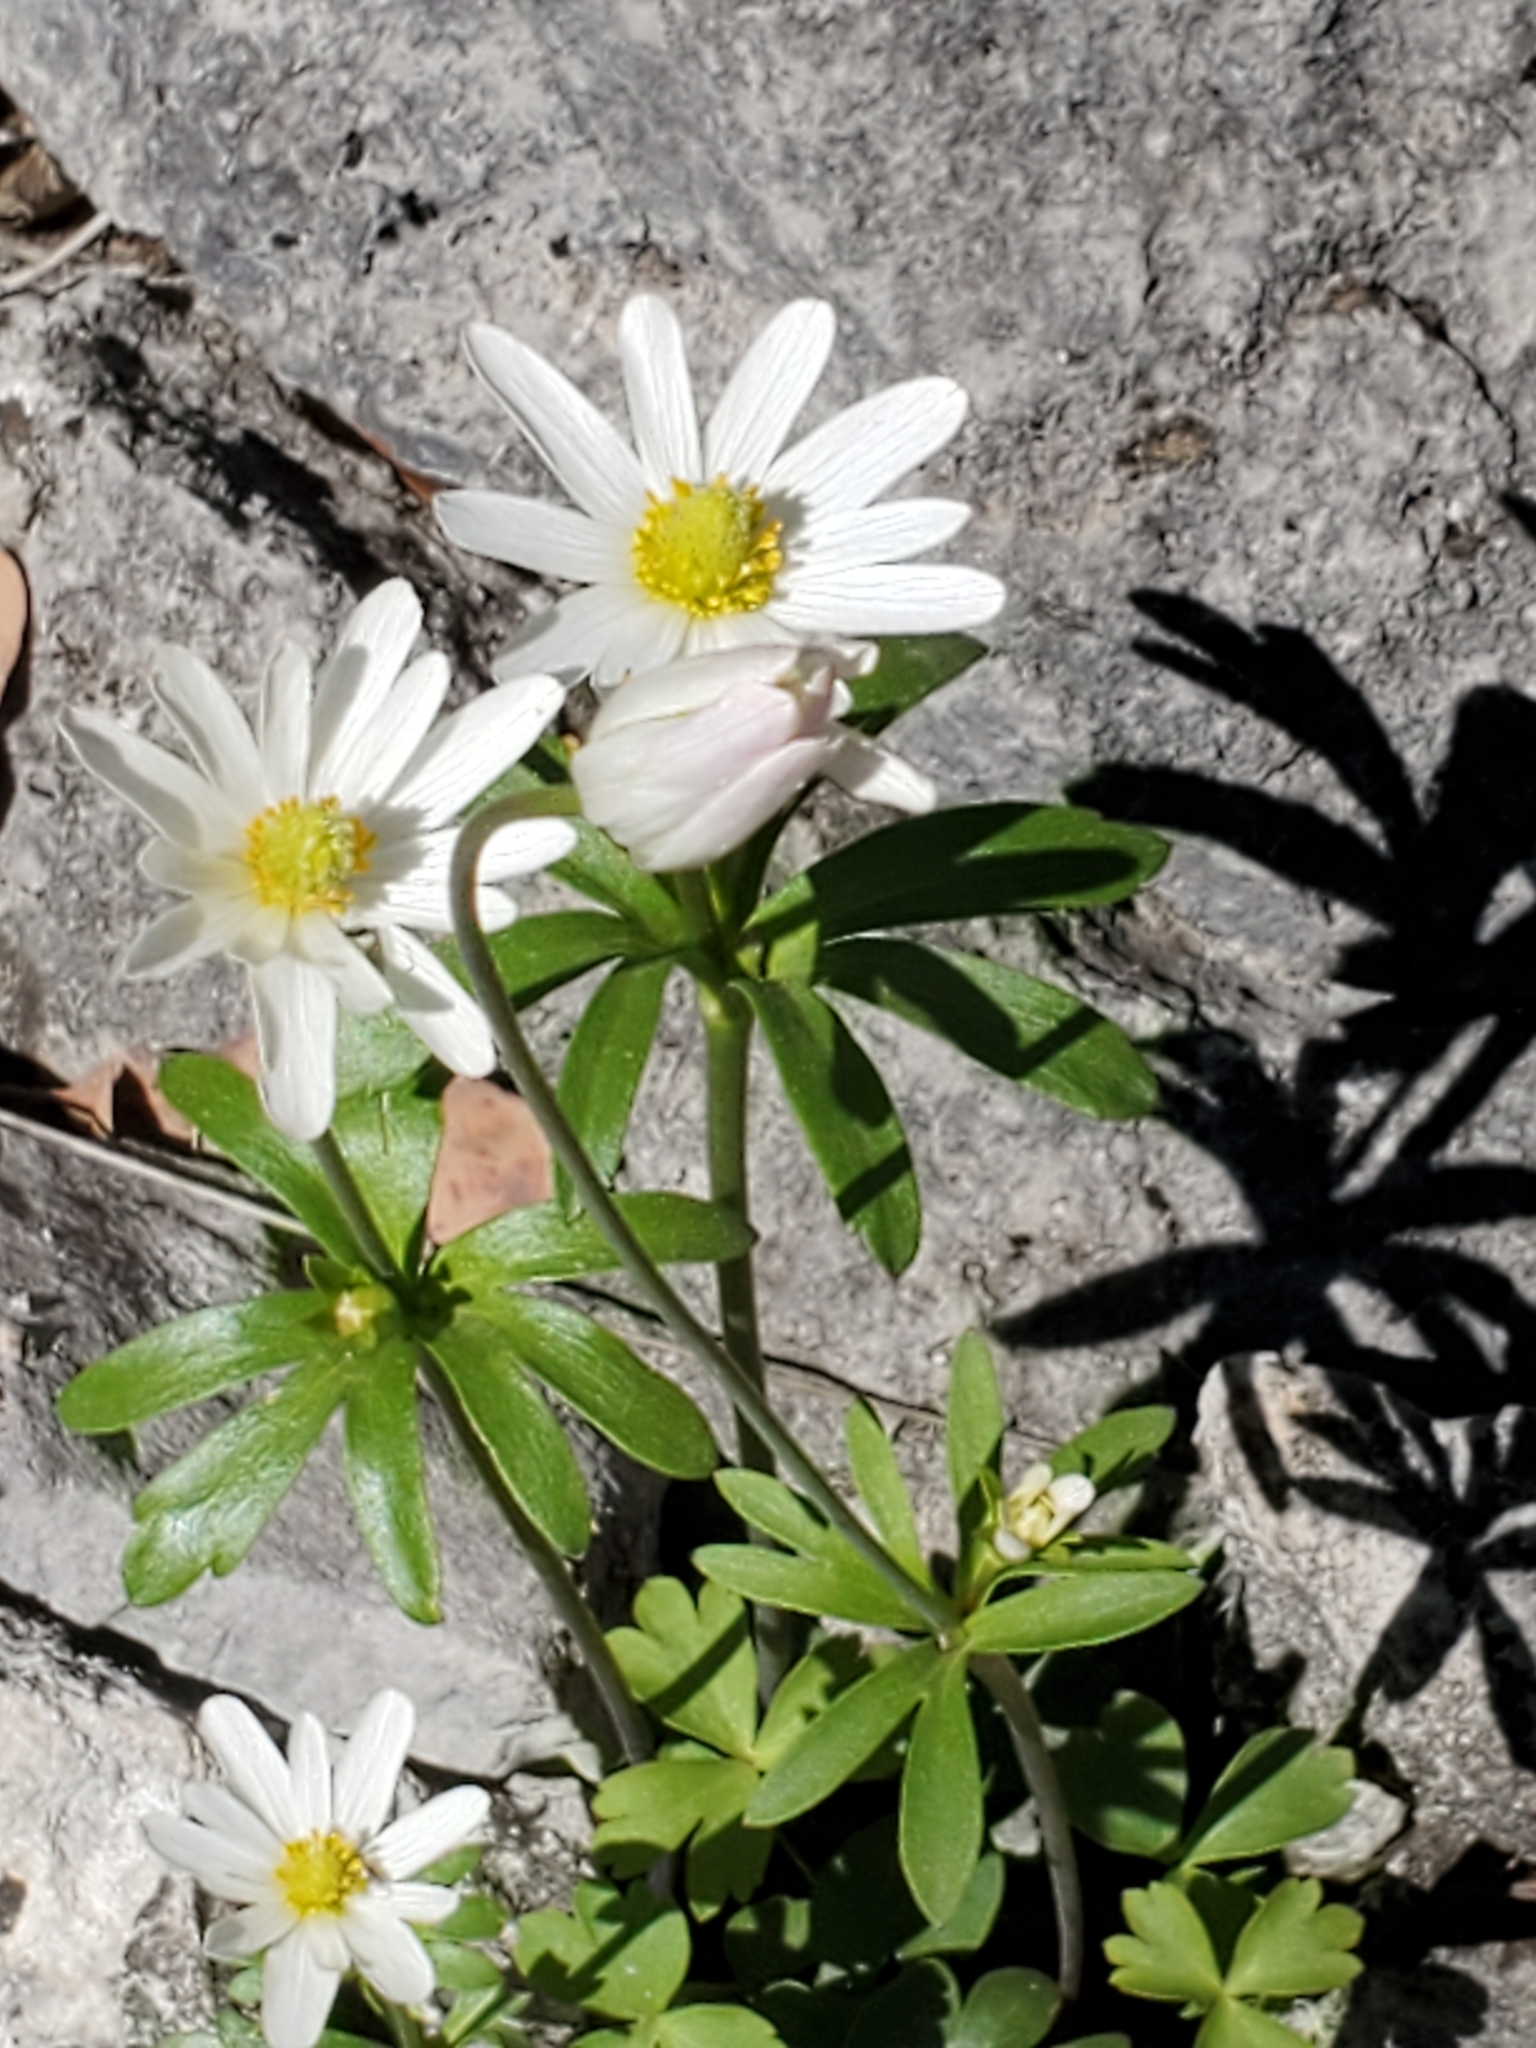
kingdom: Plantae
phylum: Tracheophyta
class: Magnoliopsida
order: Ranunculales
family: Ranunculaceae
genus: Anemone
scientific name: Anemone edwardsiana
